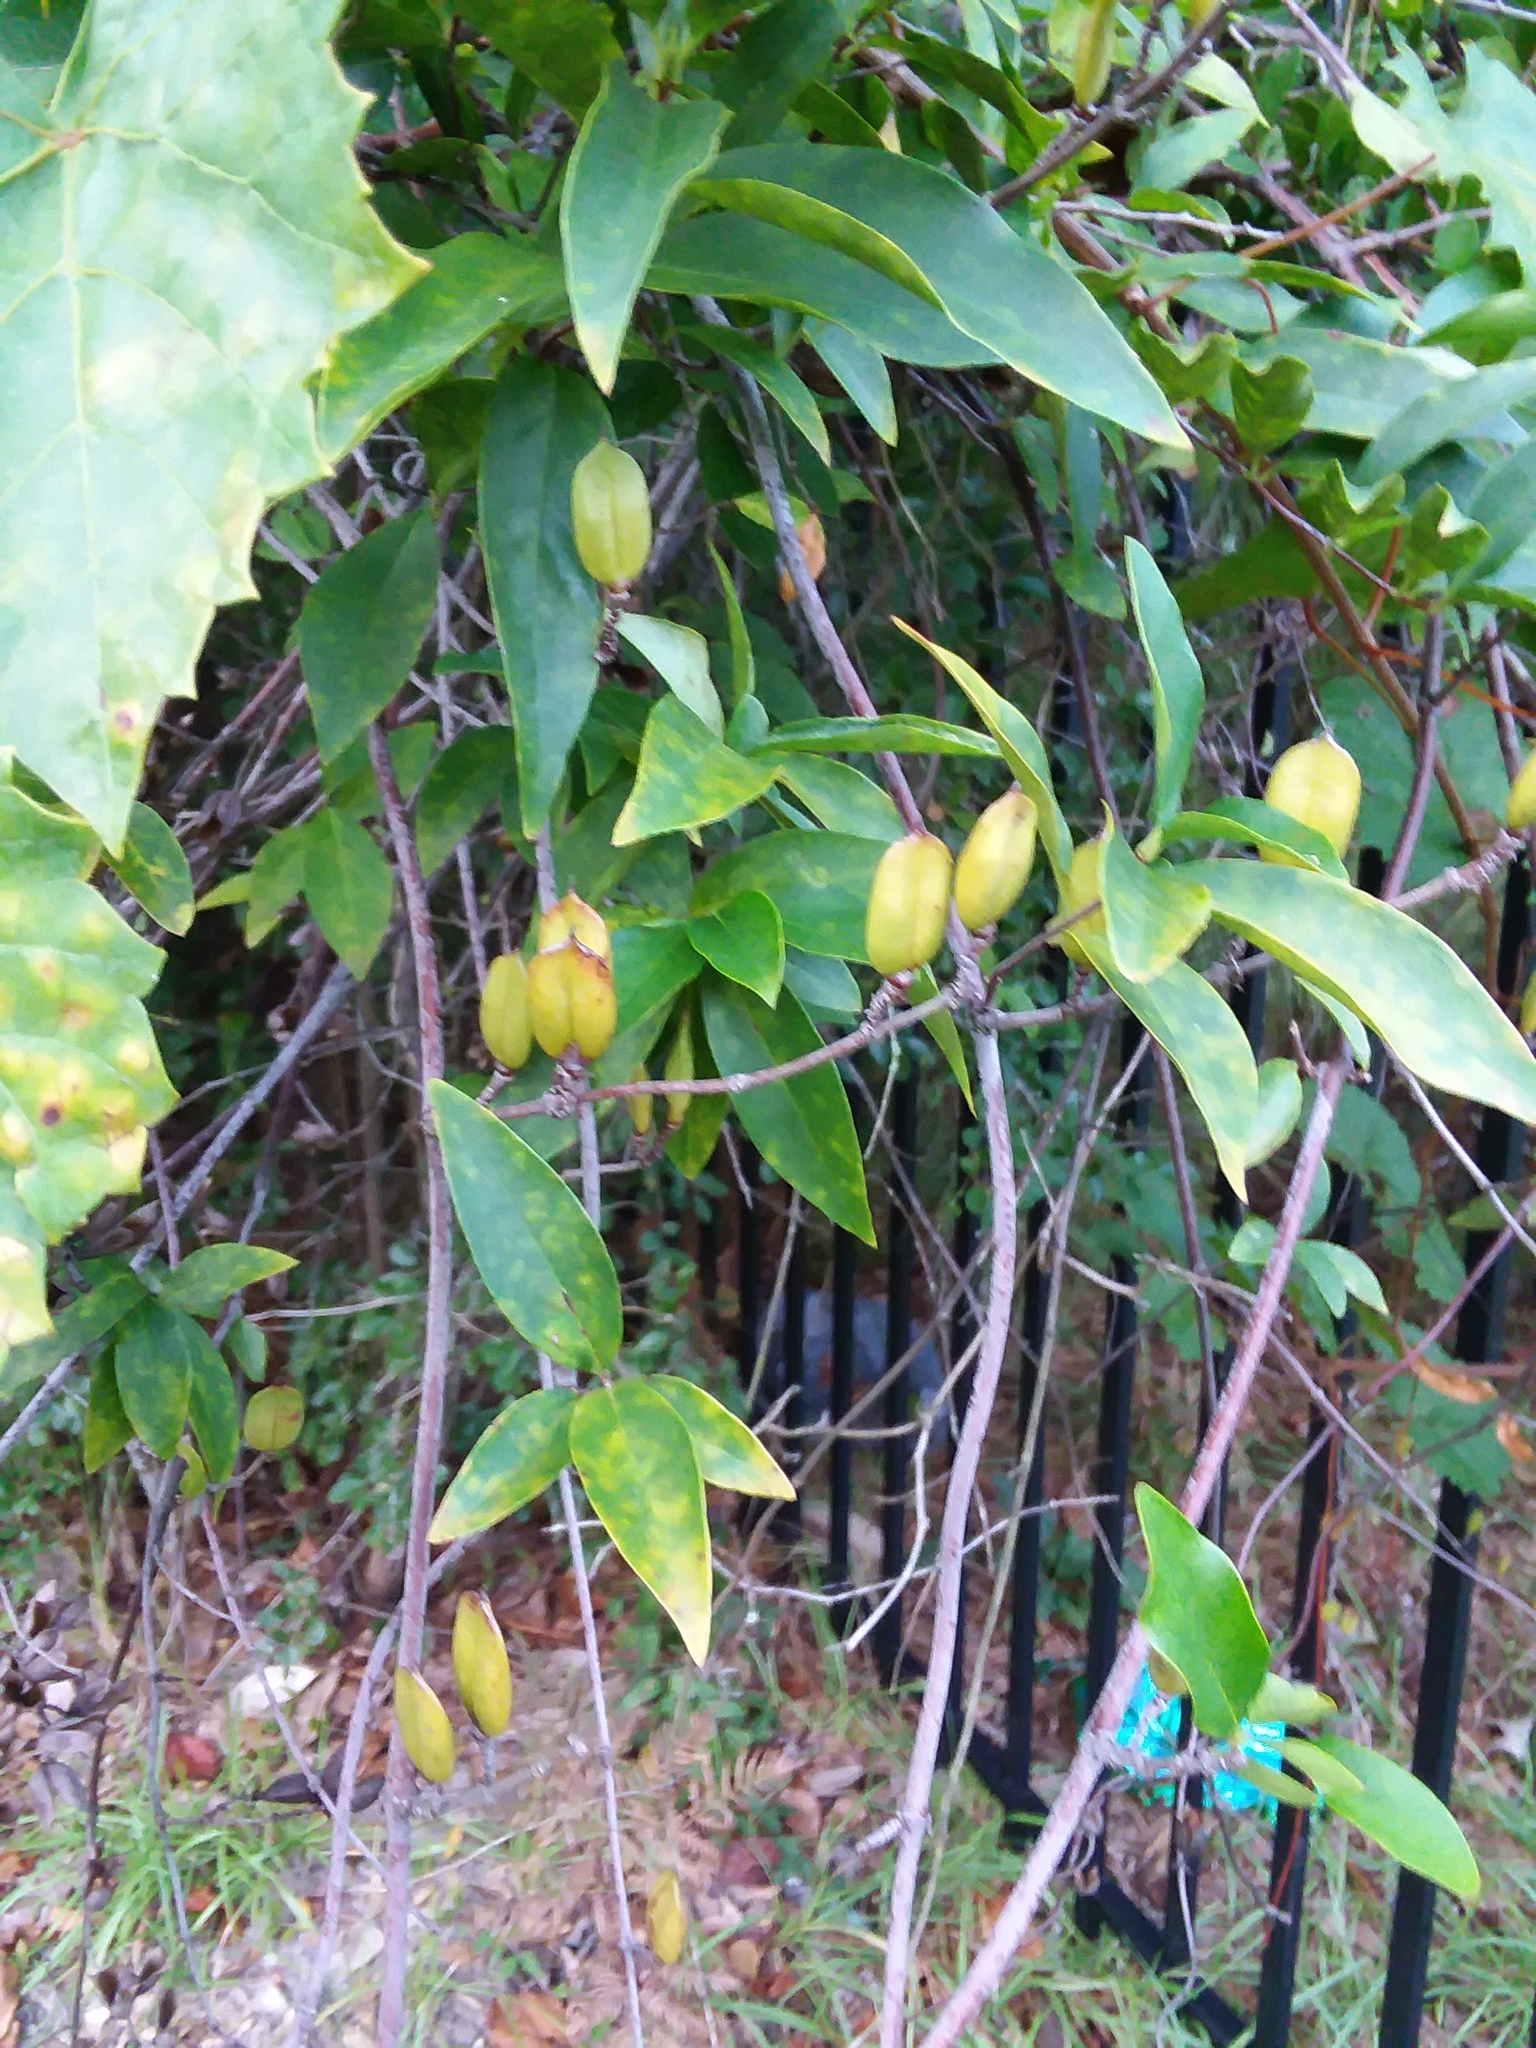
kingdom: Plantae
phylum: Tracheophyta
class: Magnoliopsida
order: Gentianales
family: Gelsemiaceae
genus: Gelsemium
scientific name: Gelsemium sempervirens
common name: Carolina-jasmine
